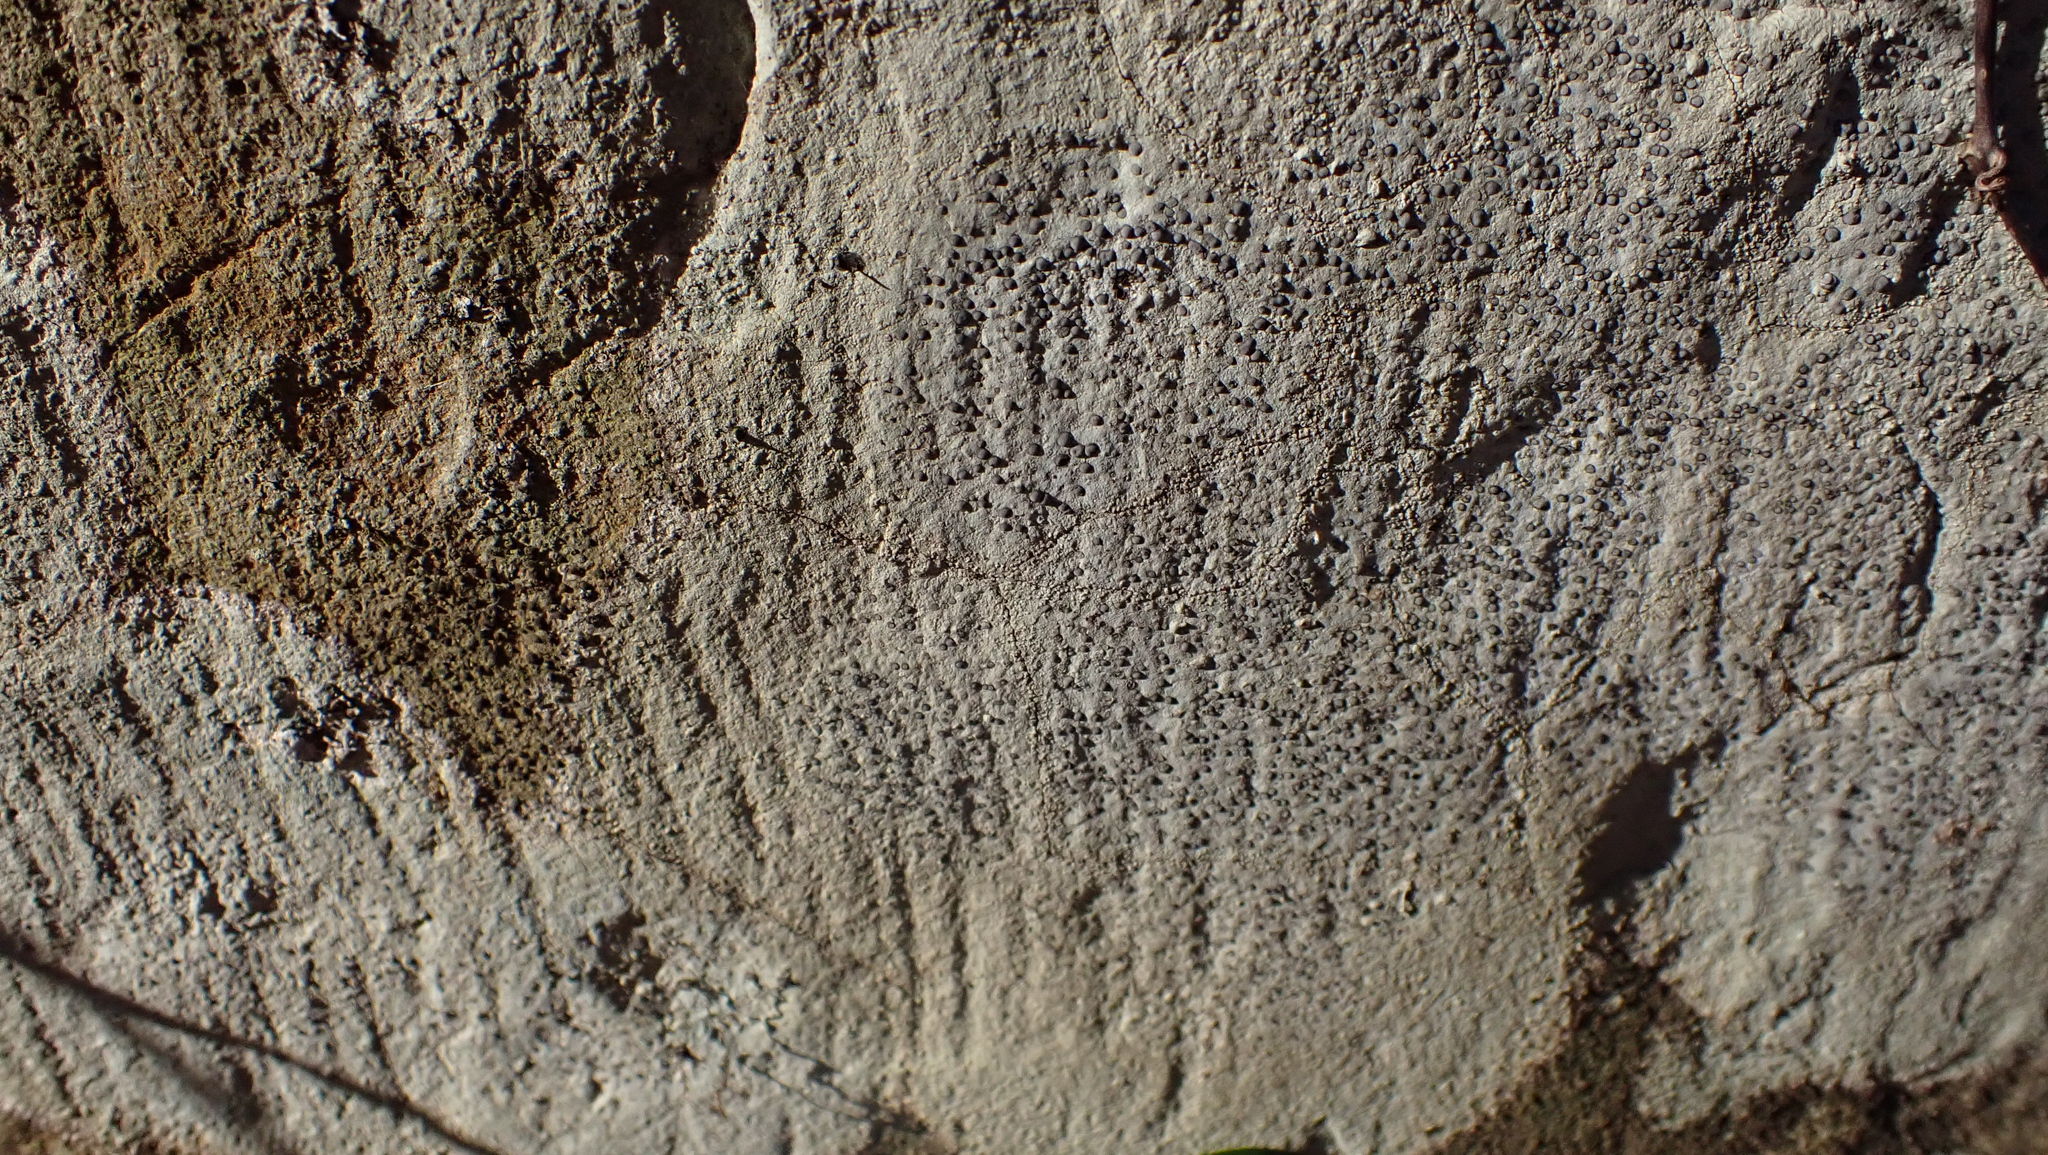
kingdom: Fungi
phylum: Ascomycota
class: Lecanoromycetes
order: Lecideales
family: Lecideaceae
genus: Porpidia
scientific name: Porpidia albocaerulescens
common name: Smokey-eyed boulder lichen
